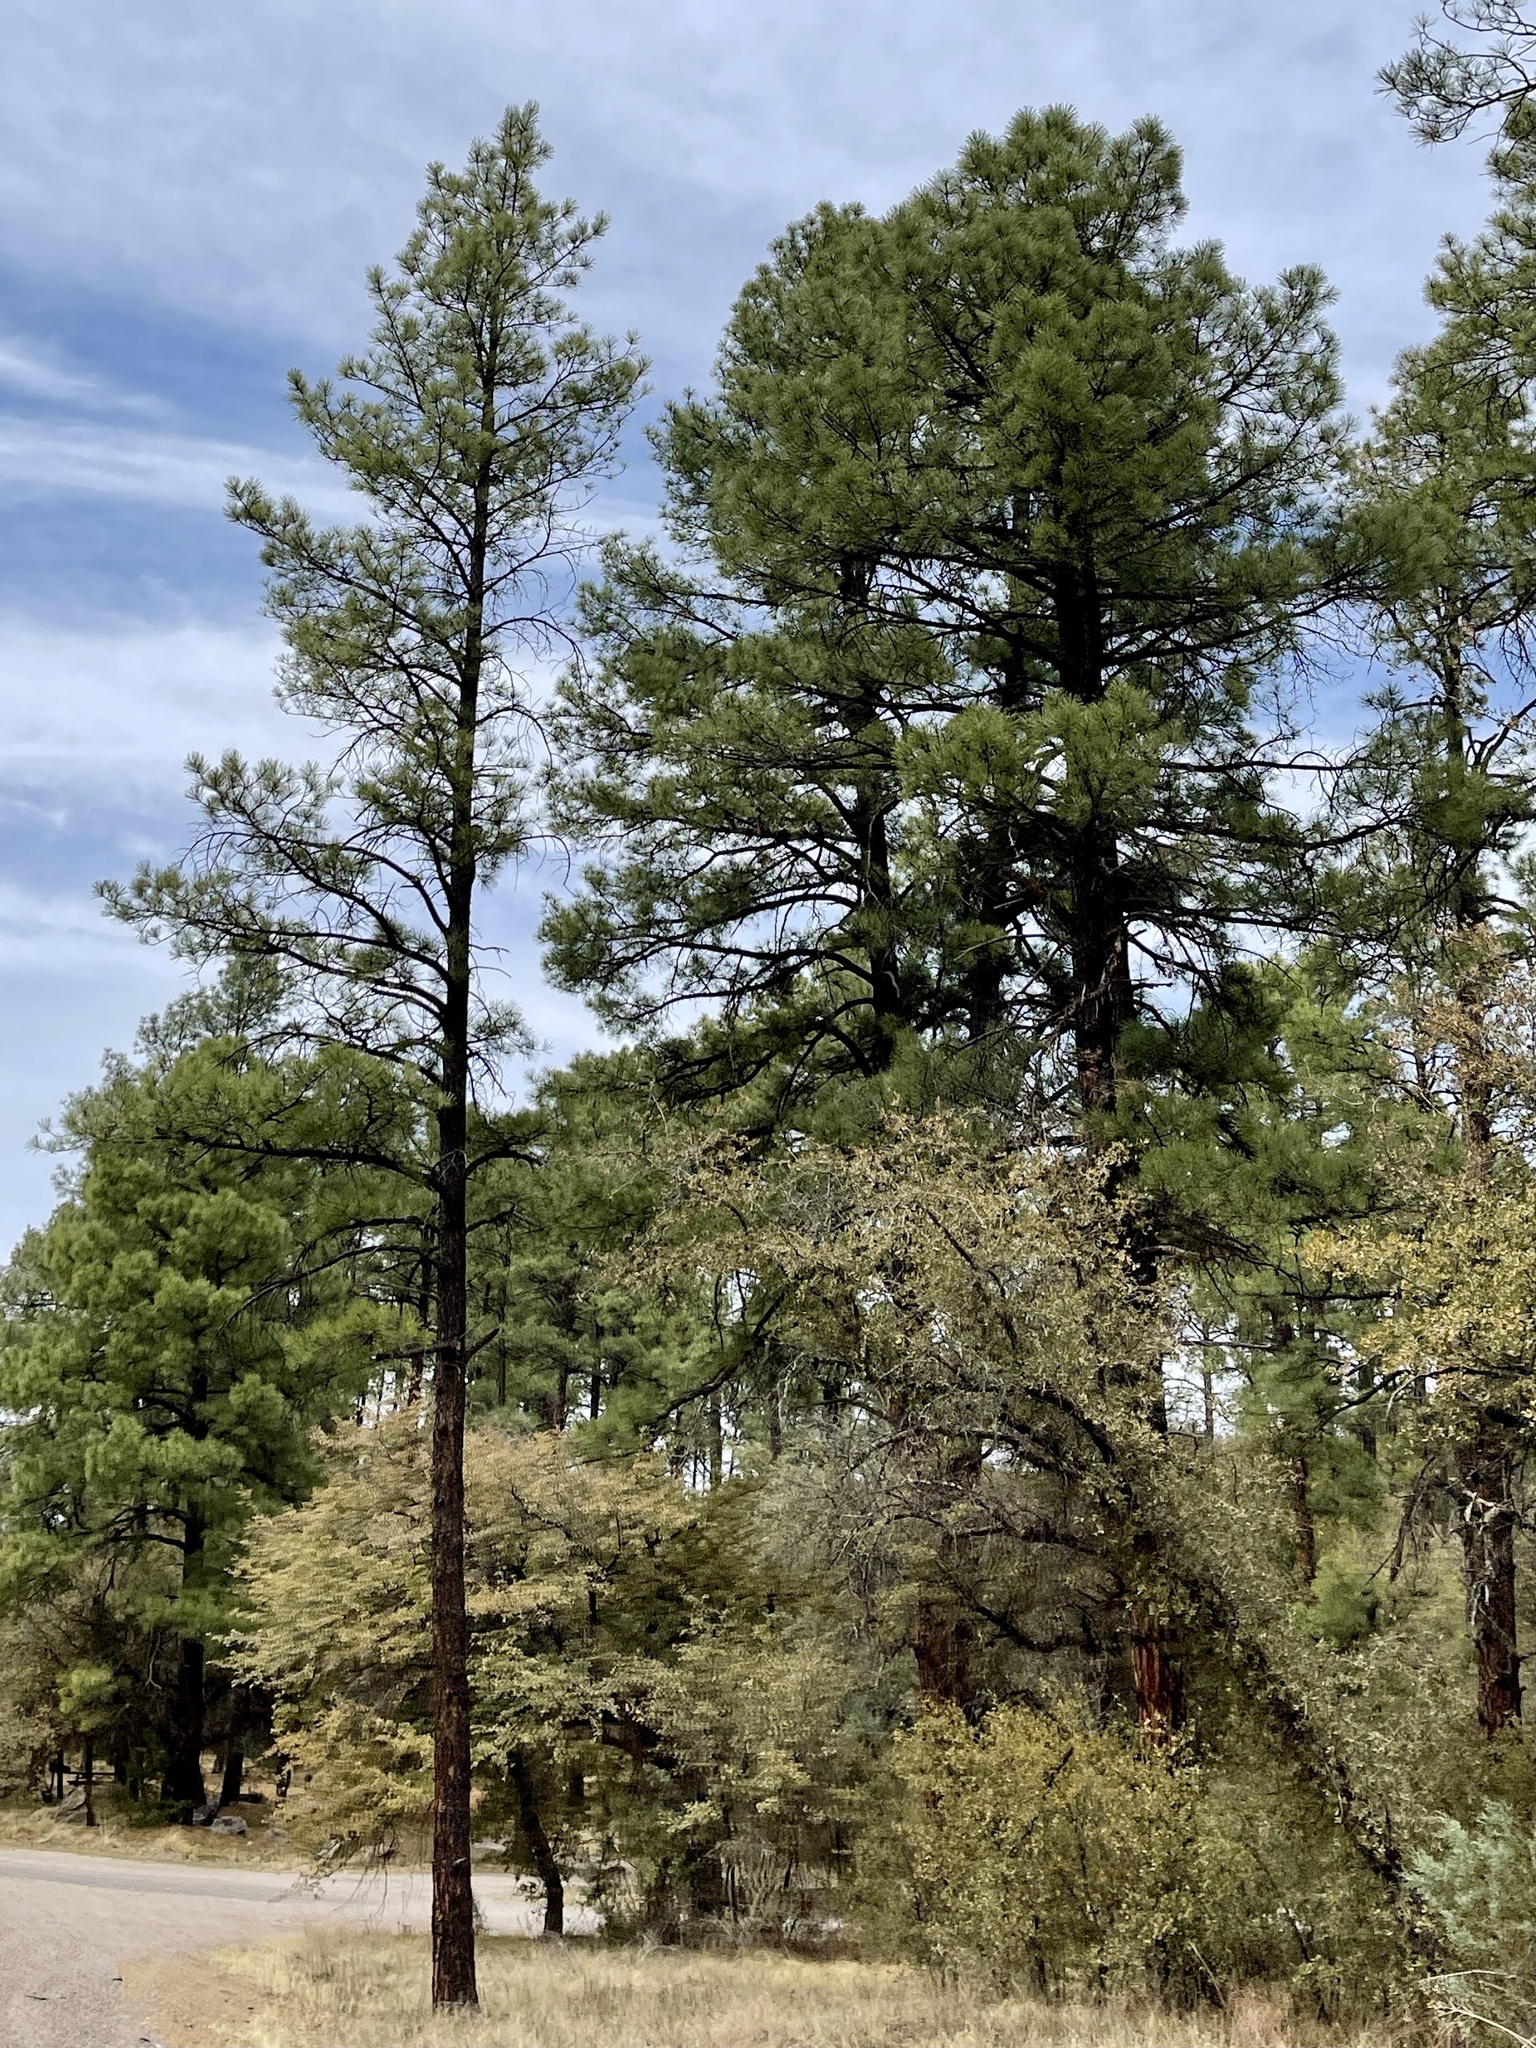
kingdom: Plantae
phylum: Tracheophyta
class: Pinopsida
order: Pinales
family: Pinaceae
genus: Pinus
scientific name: Pinus ponderosa
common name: Western yellow-pine
